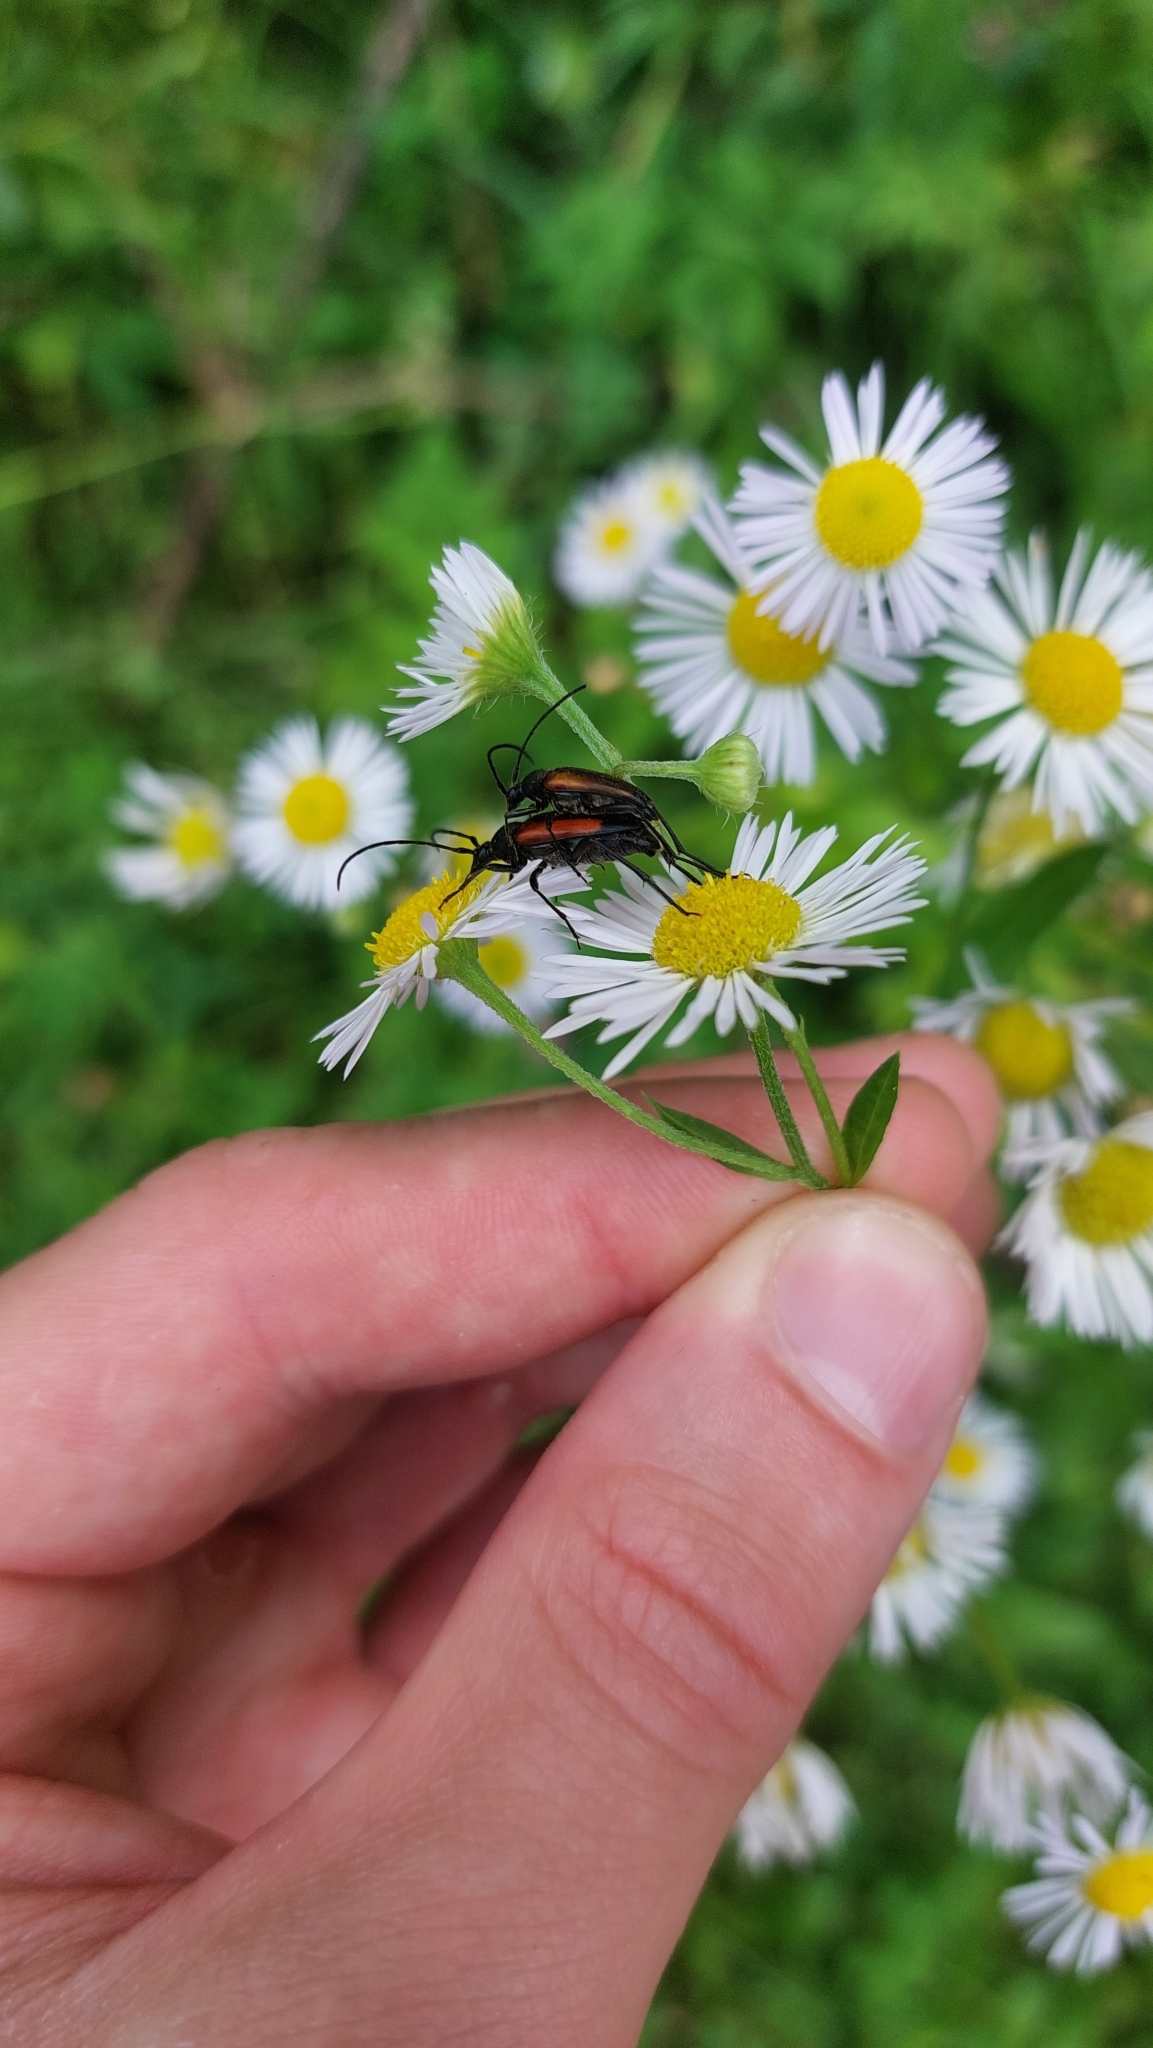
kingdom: Animalia
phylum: Arthropoda
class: Insecta
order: Coleoptera
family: Cerambycidae
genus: Stenurella
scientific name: Stenurella melanura
